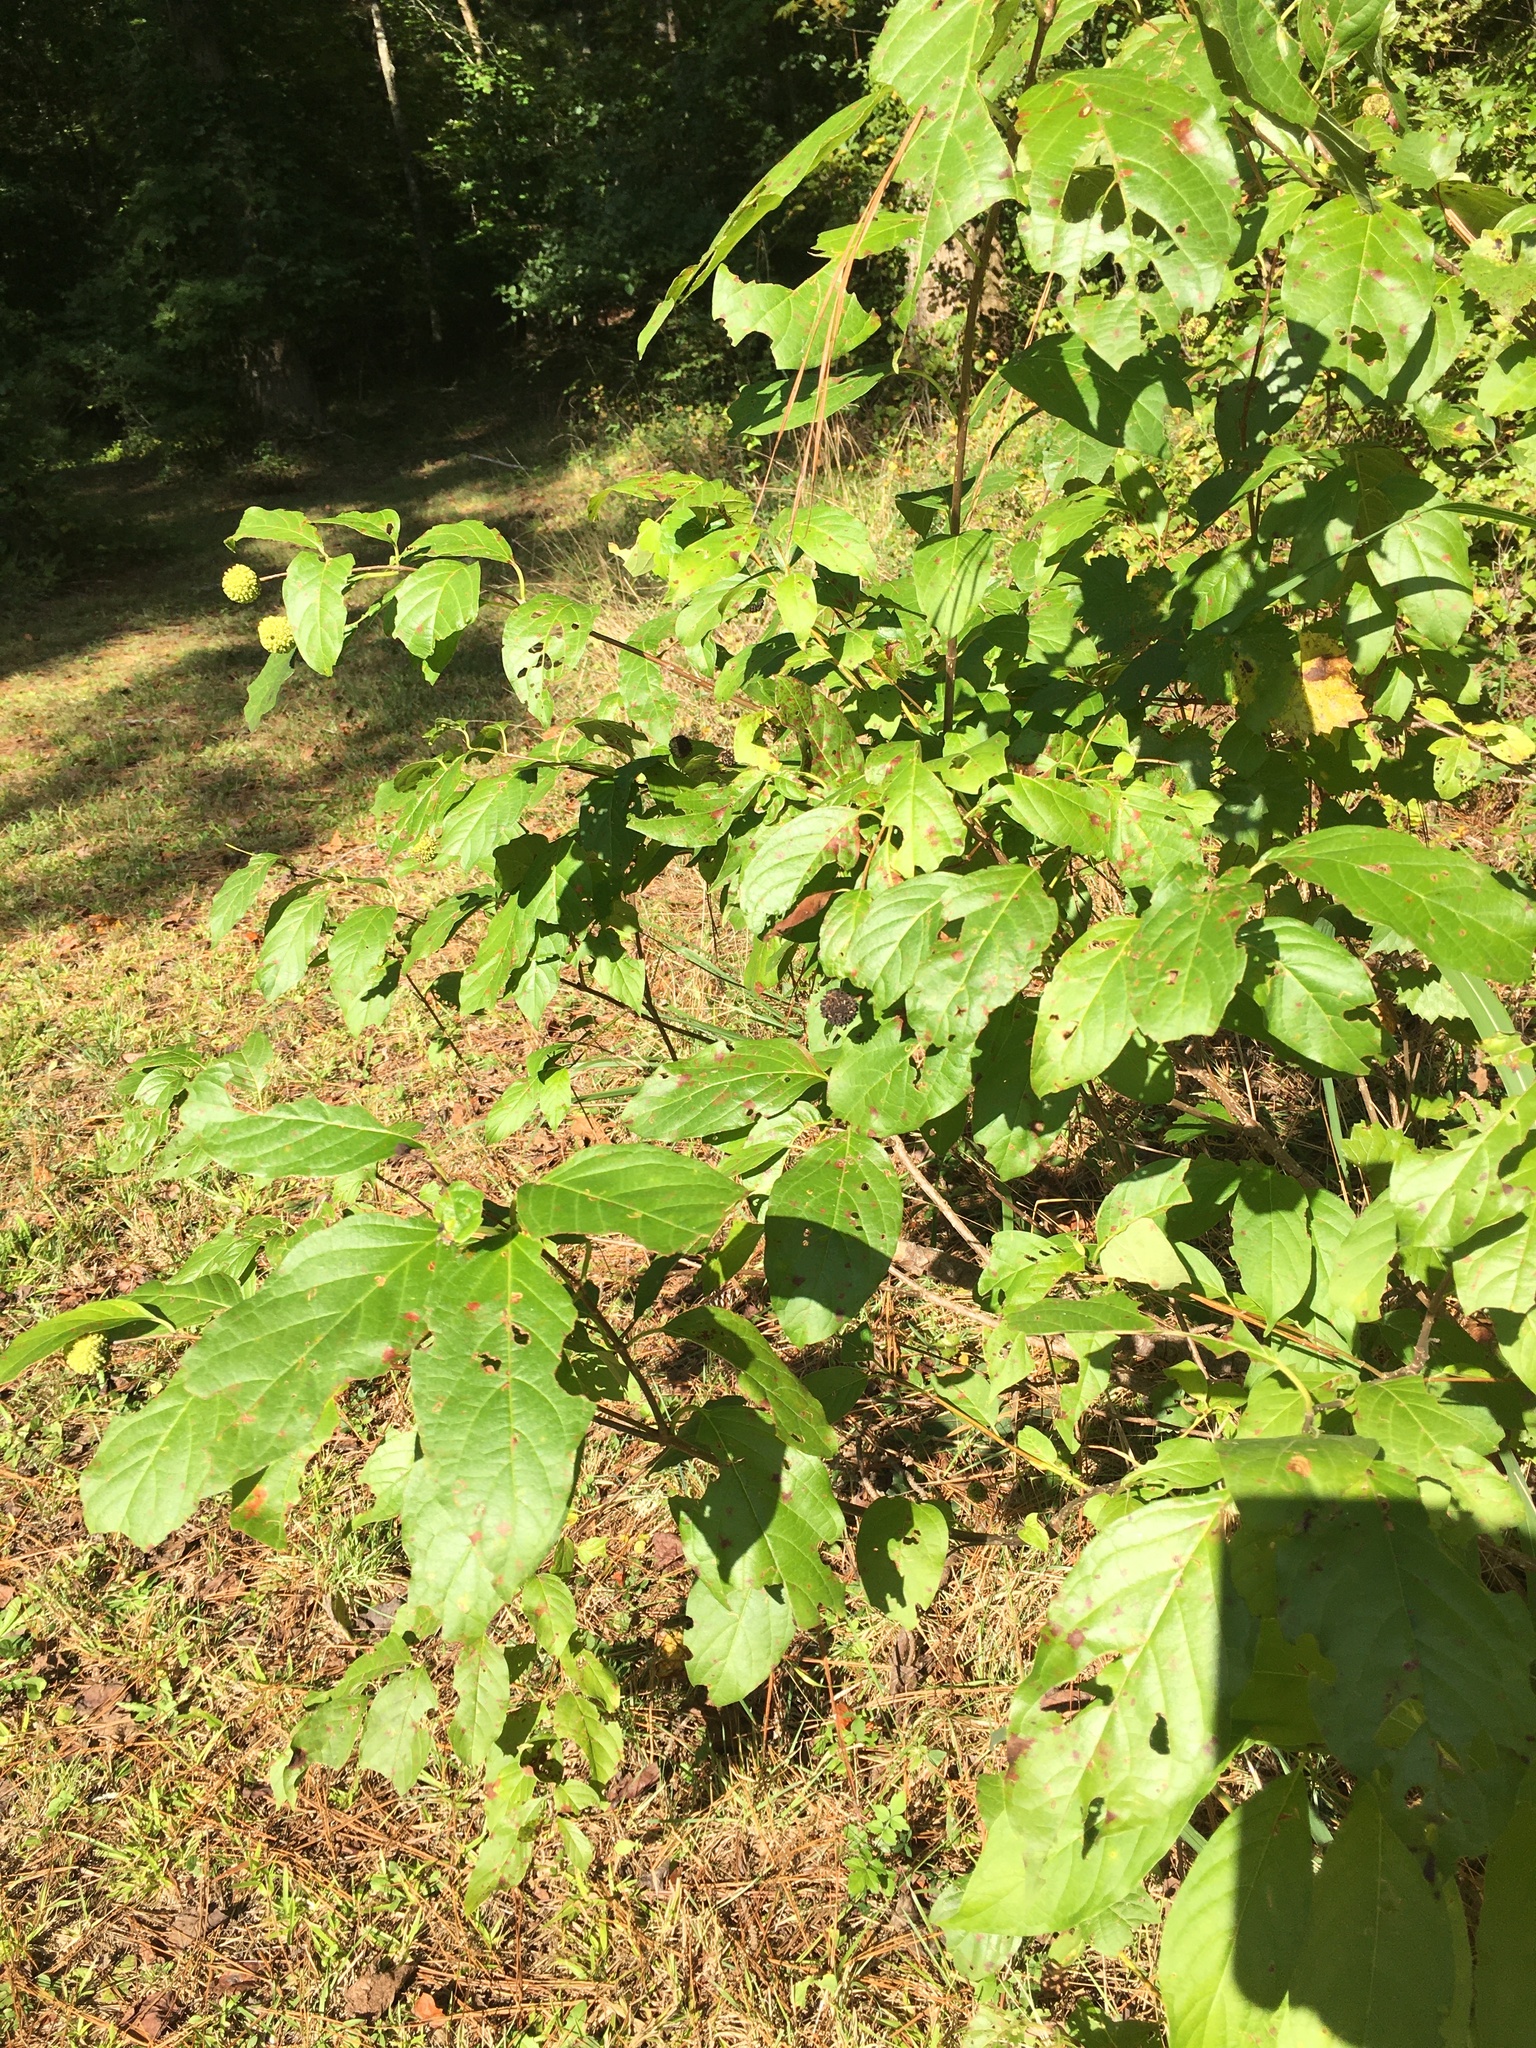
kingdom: Plantae
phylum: Tracheophyta
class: Magnoliopsida
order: Gentianales
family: Rubiaceae
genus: Cephalanthus
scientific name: Cephalanthus occidentalis
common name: Button-willow
